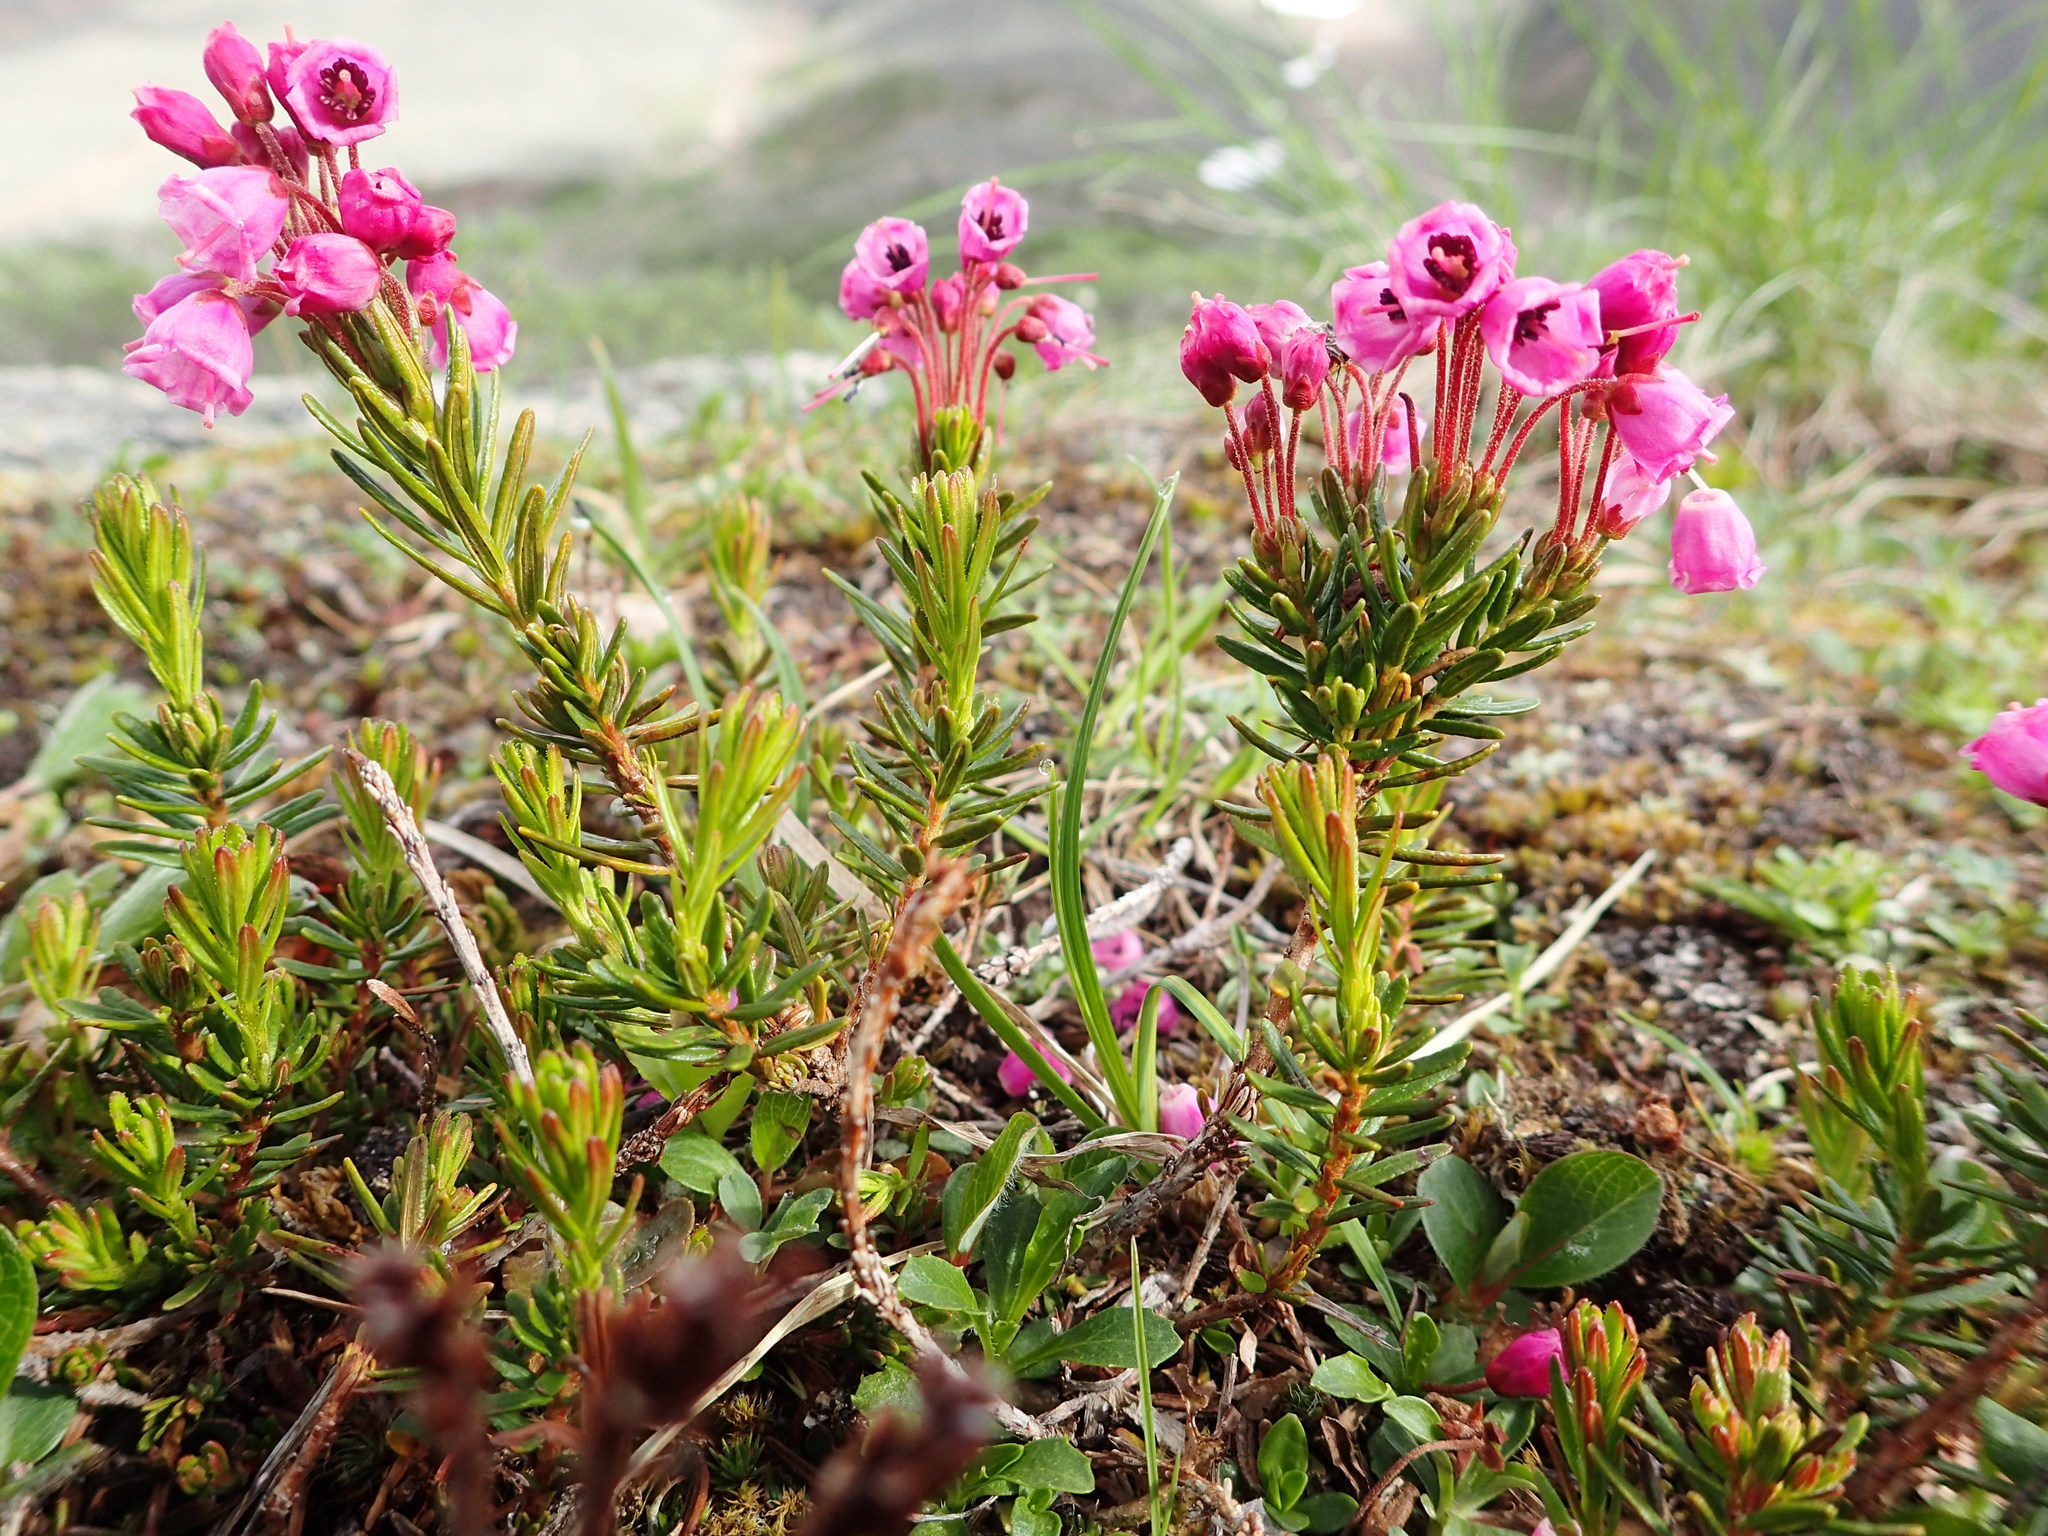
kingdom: Plantae
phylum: Tracheophyta
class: Magnoliopsida
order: Ericales
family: Ericaceae
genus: Phyllodoce
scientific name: Phyllodoce empetriformis
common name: Pink mountain heather
